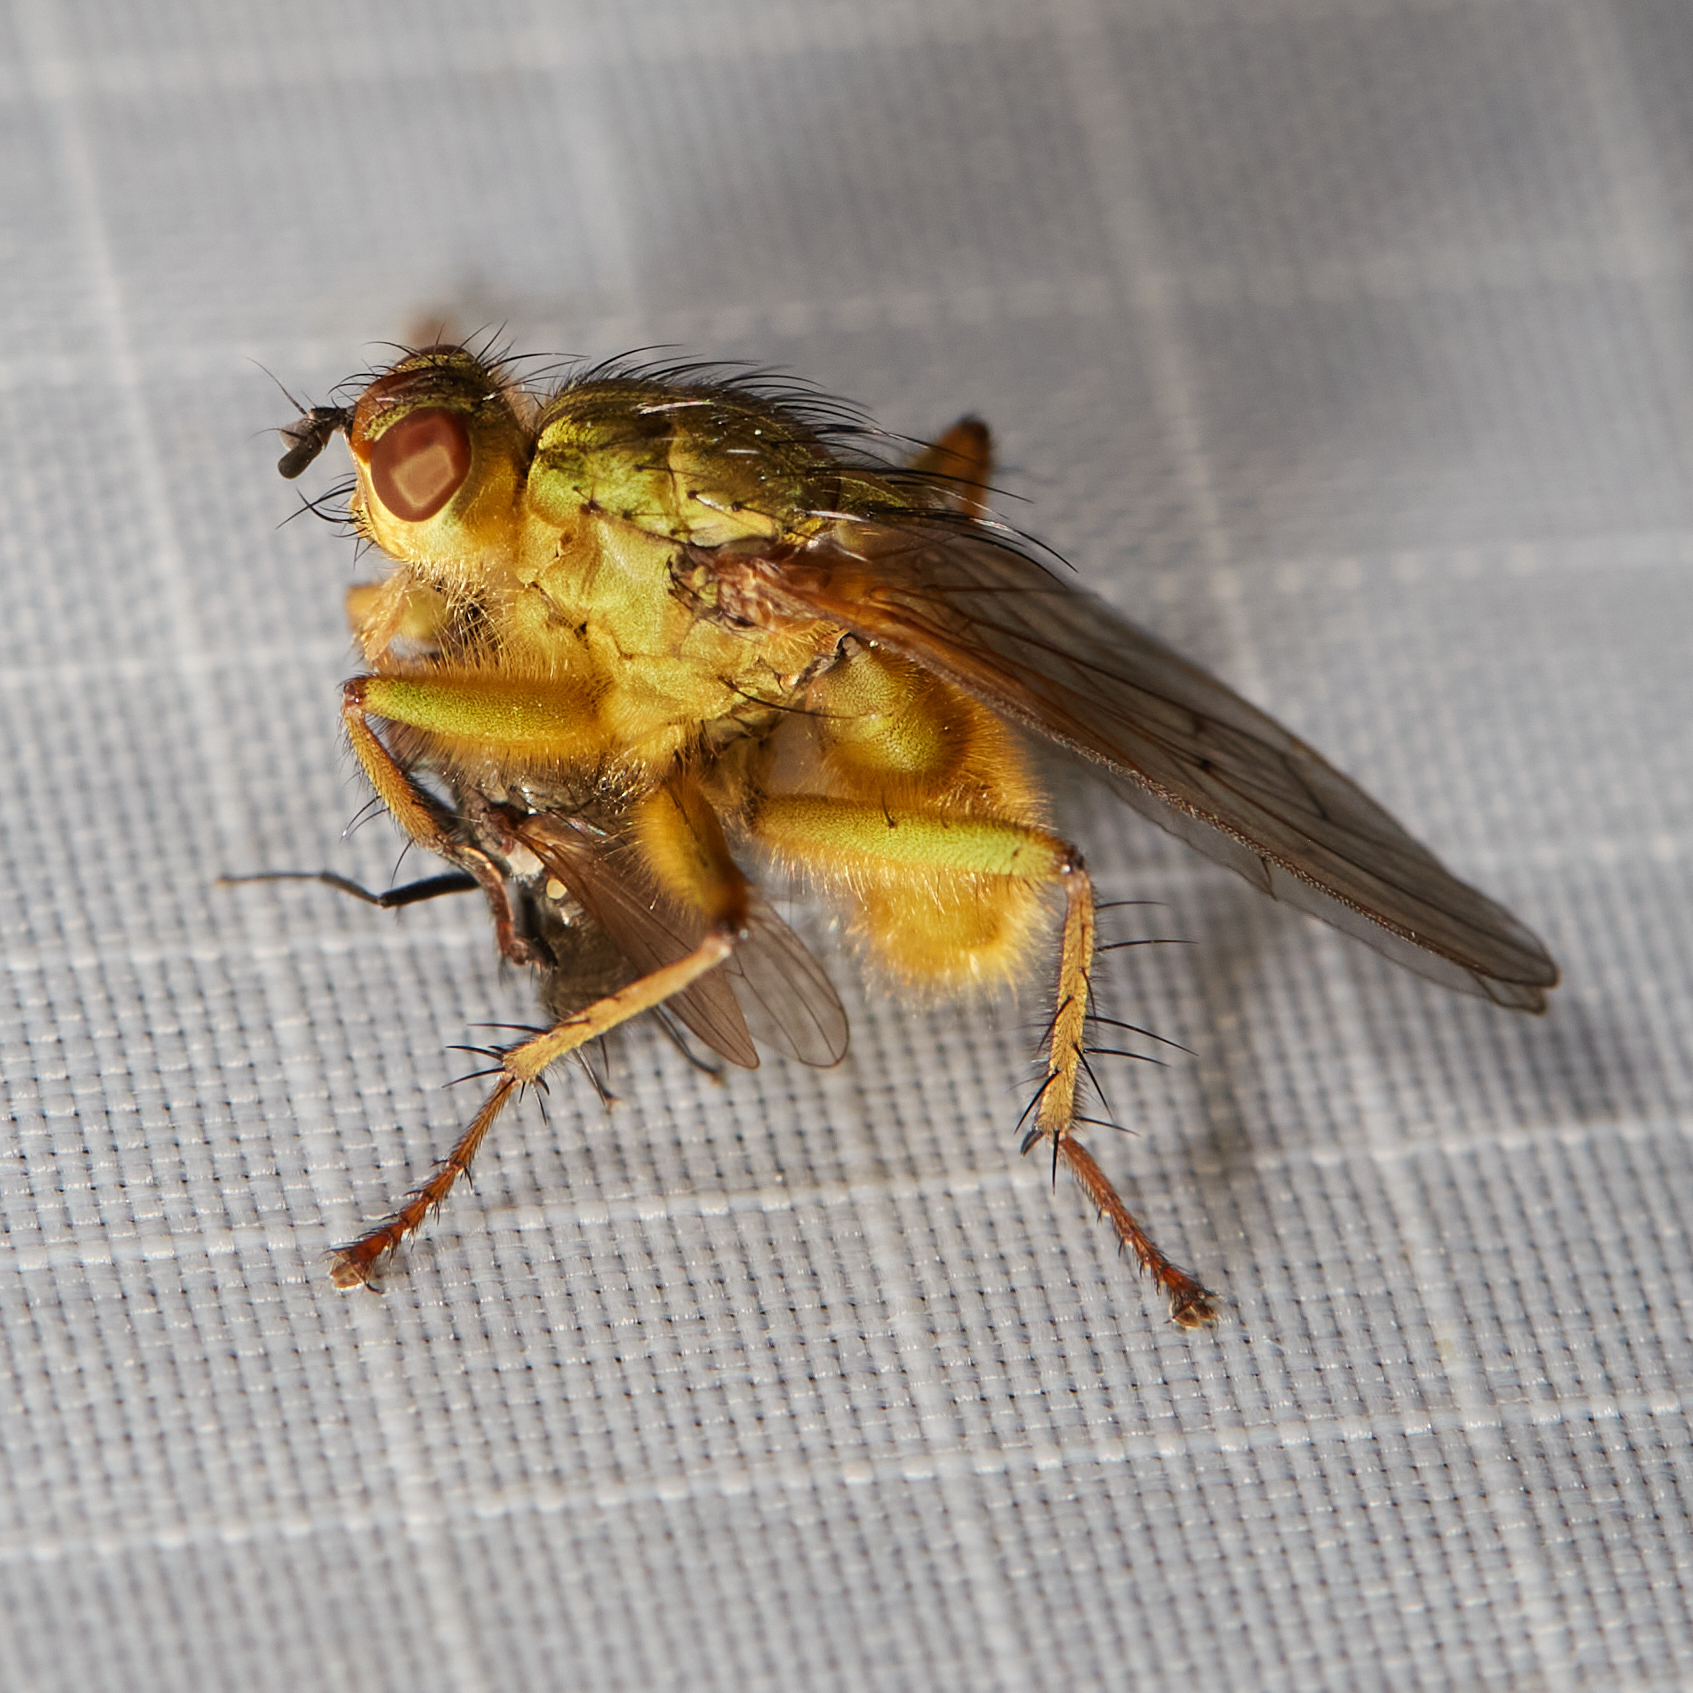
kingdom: Animalia
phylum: Arthropoda
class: Insecta
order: Diptera
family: Scathophagidae
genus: Scathophaga
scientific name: Scathophaga stercoraria
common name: Yellow dung fly
